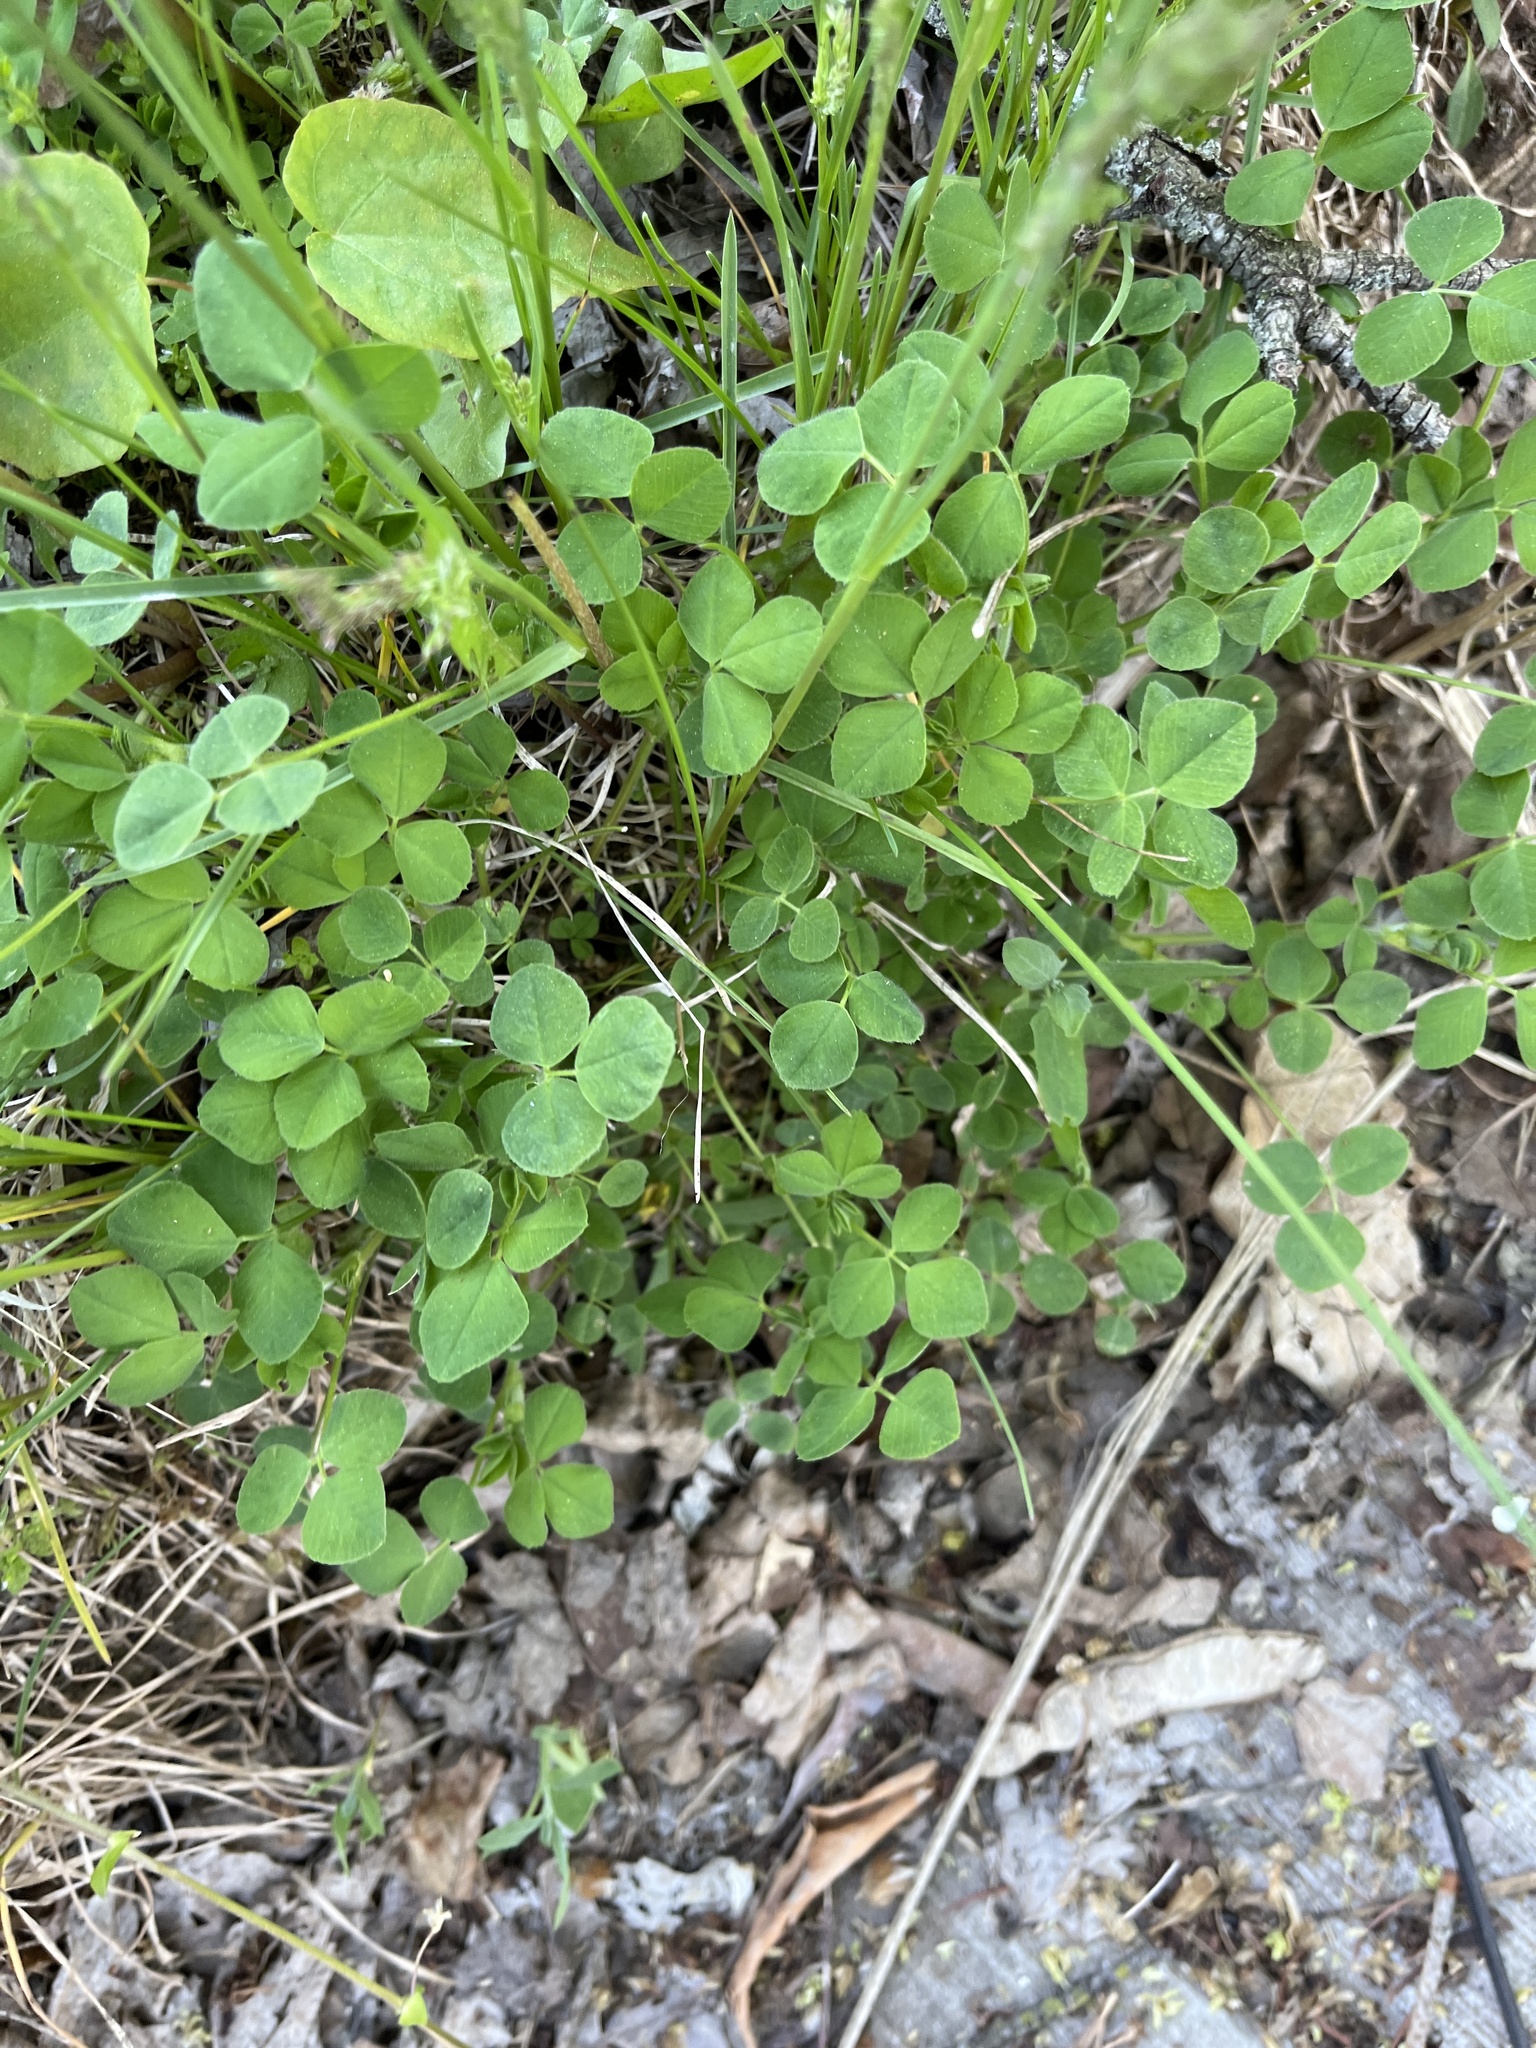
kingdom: Plantae
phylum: Tracheophyta
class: Magnoliopsida
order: Fabales
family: Fabaceae
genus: Medicago
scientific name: Medicago lupulina
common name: Black medick
